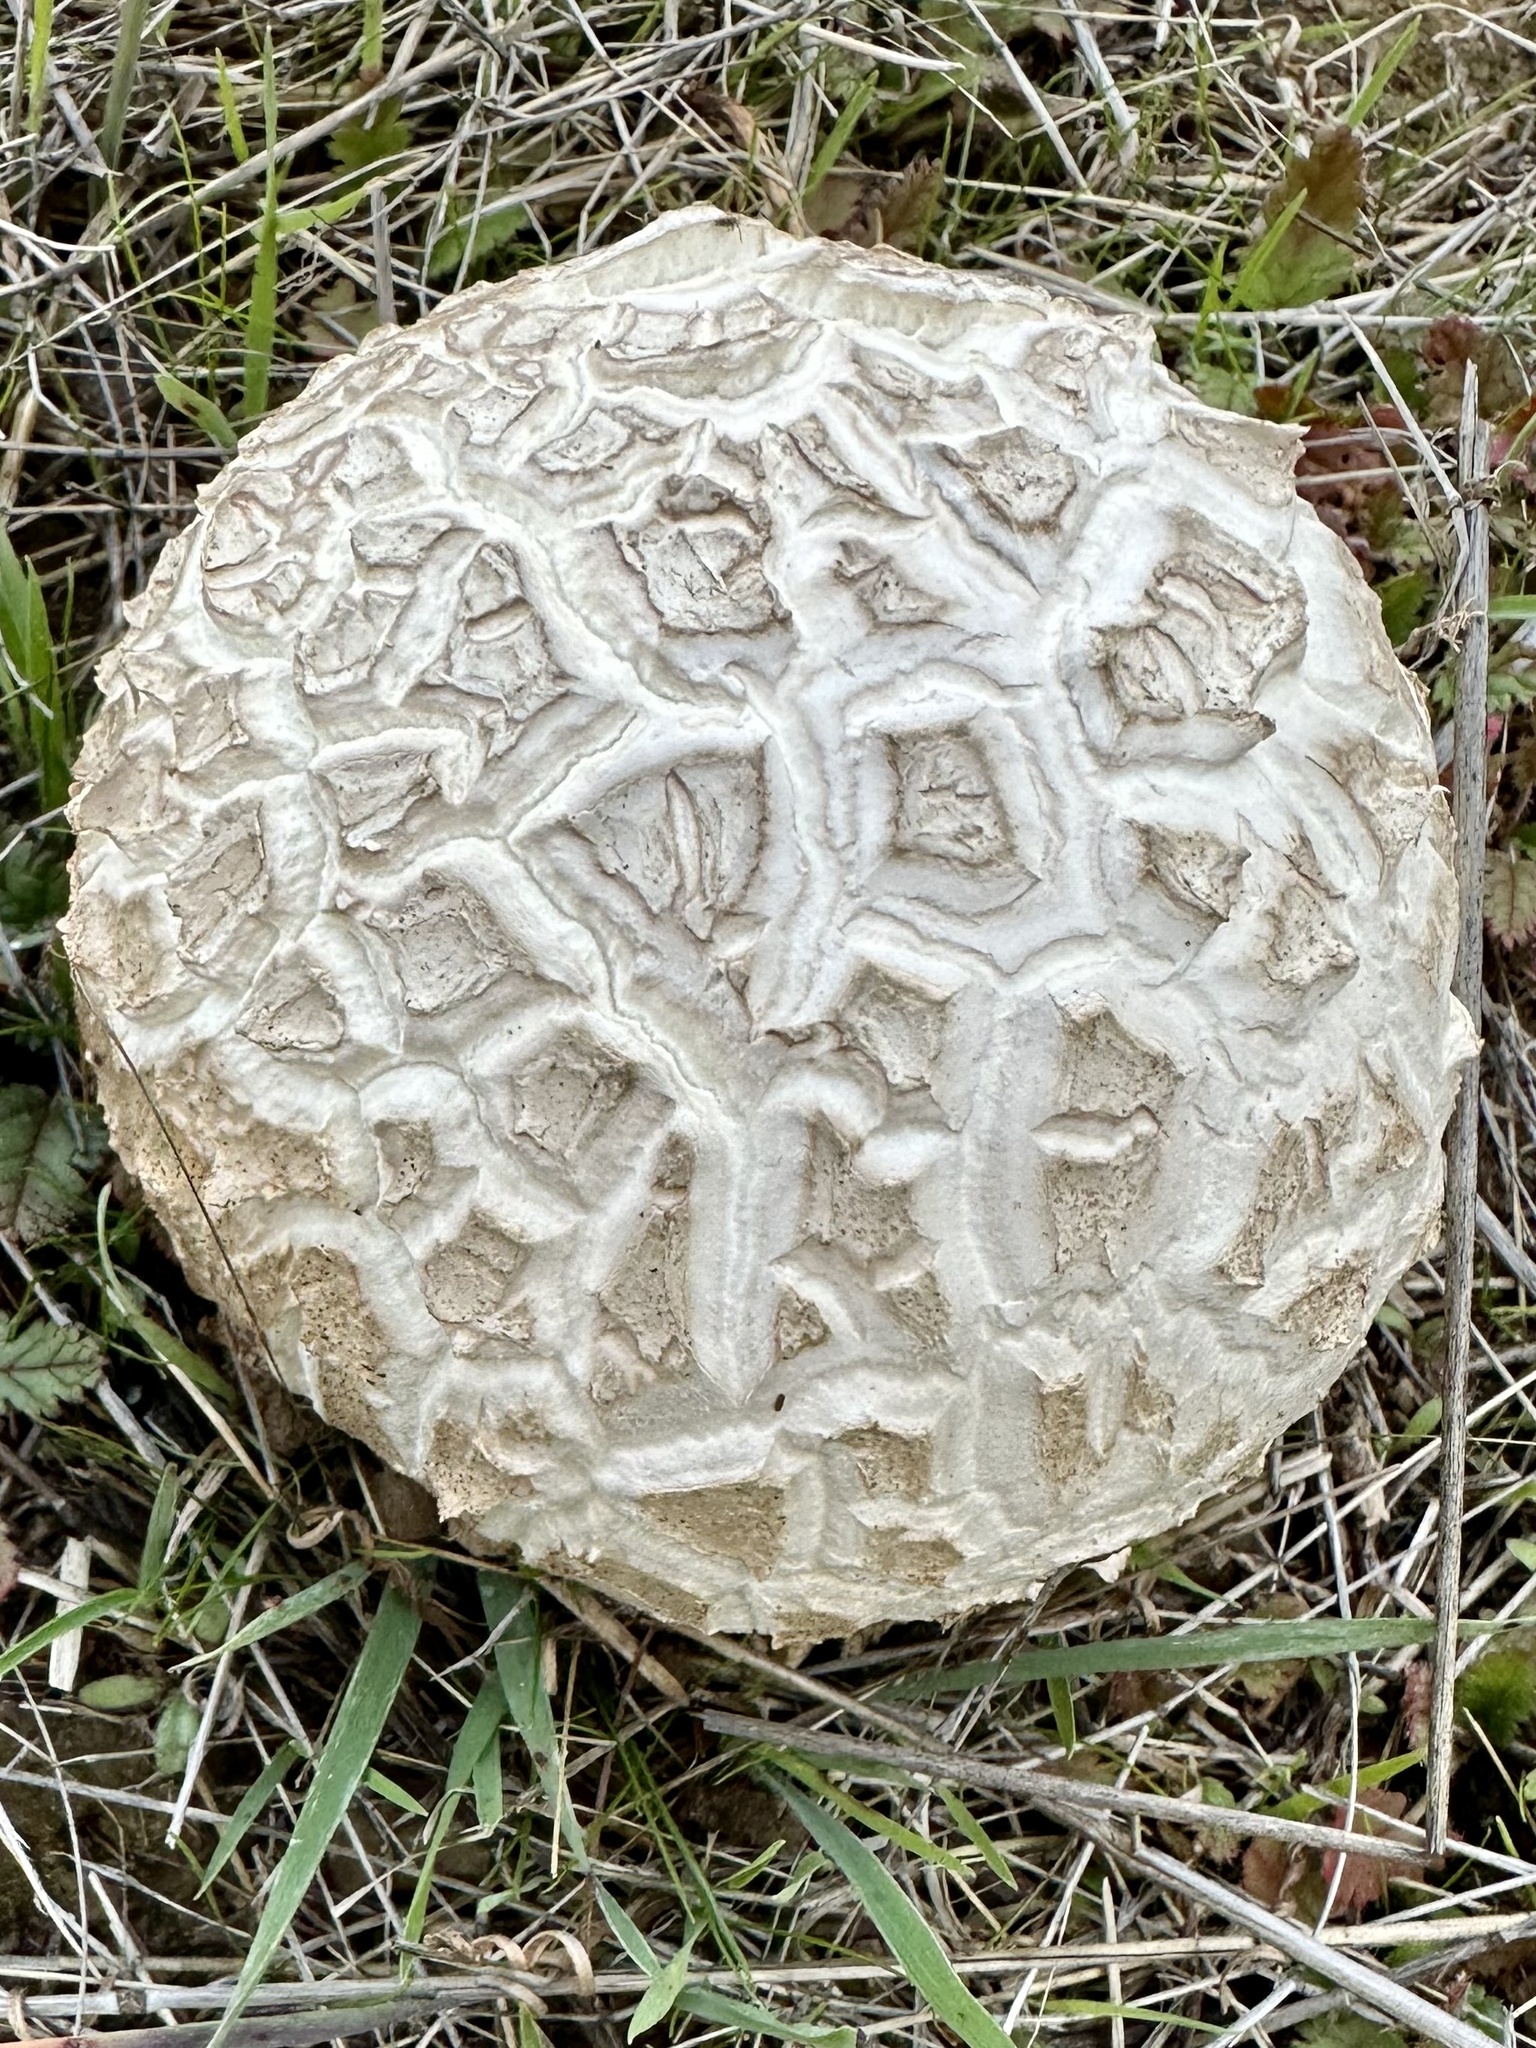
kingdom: Fungi
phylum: Basidiomycota
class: Agaricomycetes
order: Agaricales
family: Lycoperdaceae
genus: Calvatia
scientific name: Calvatia booniana
